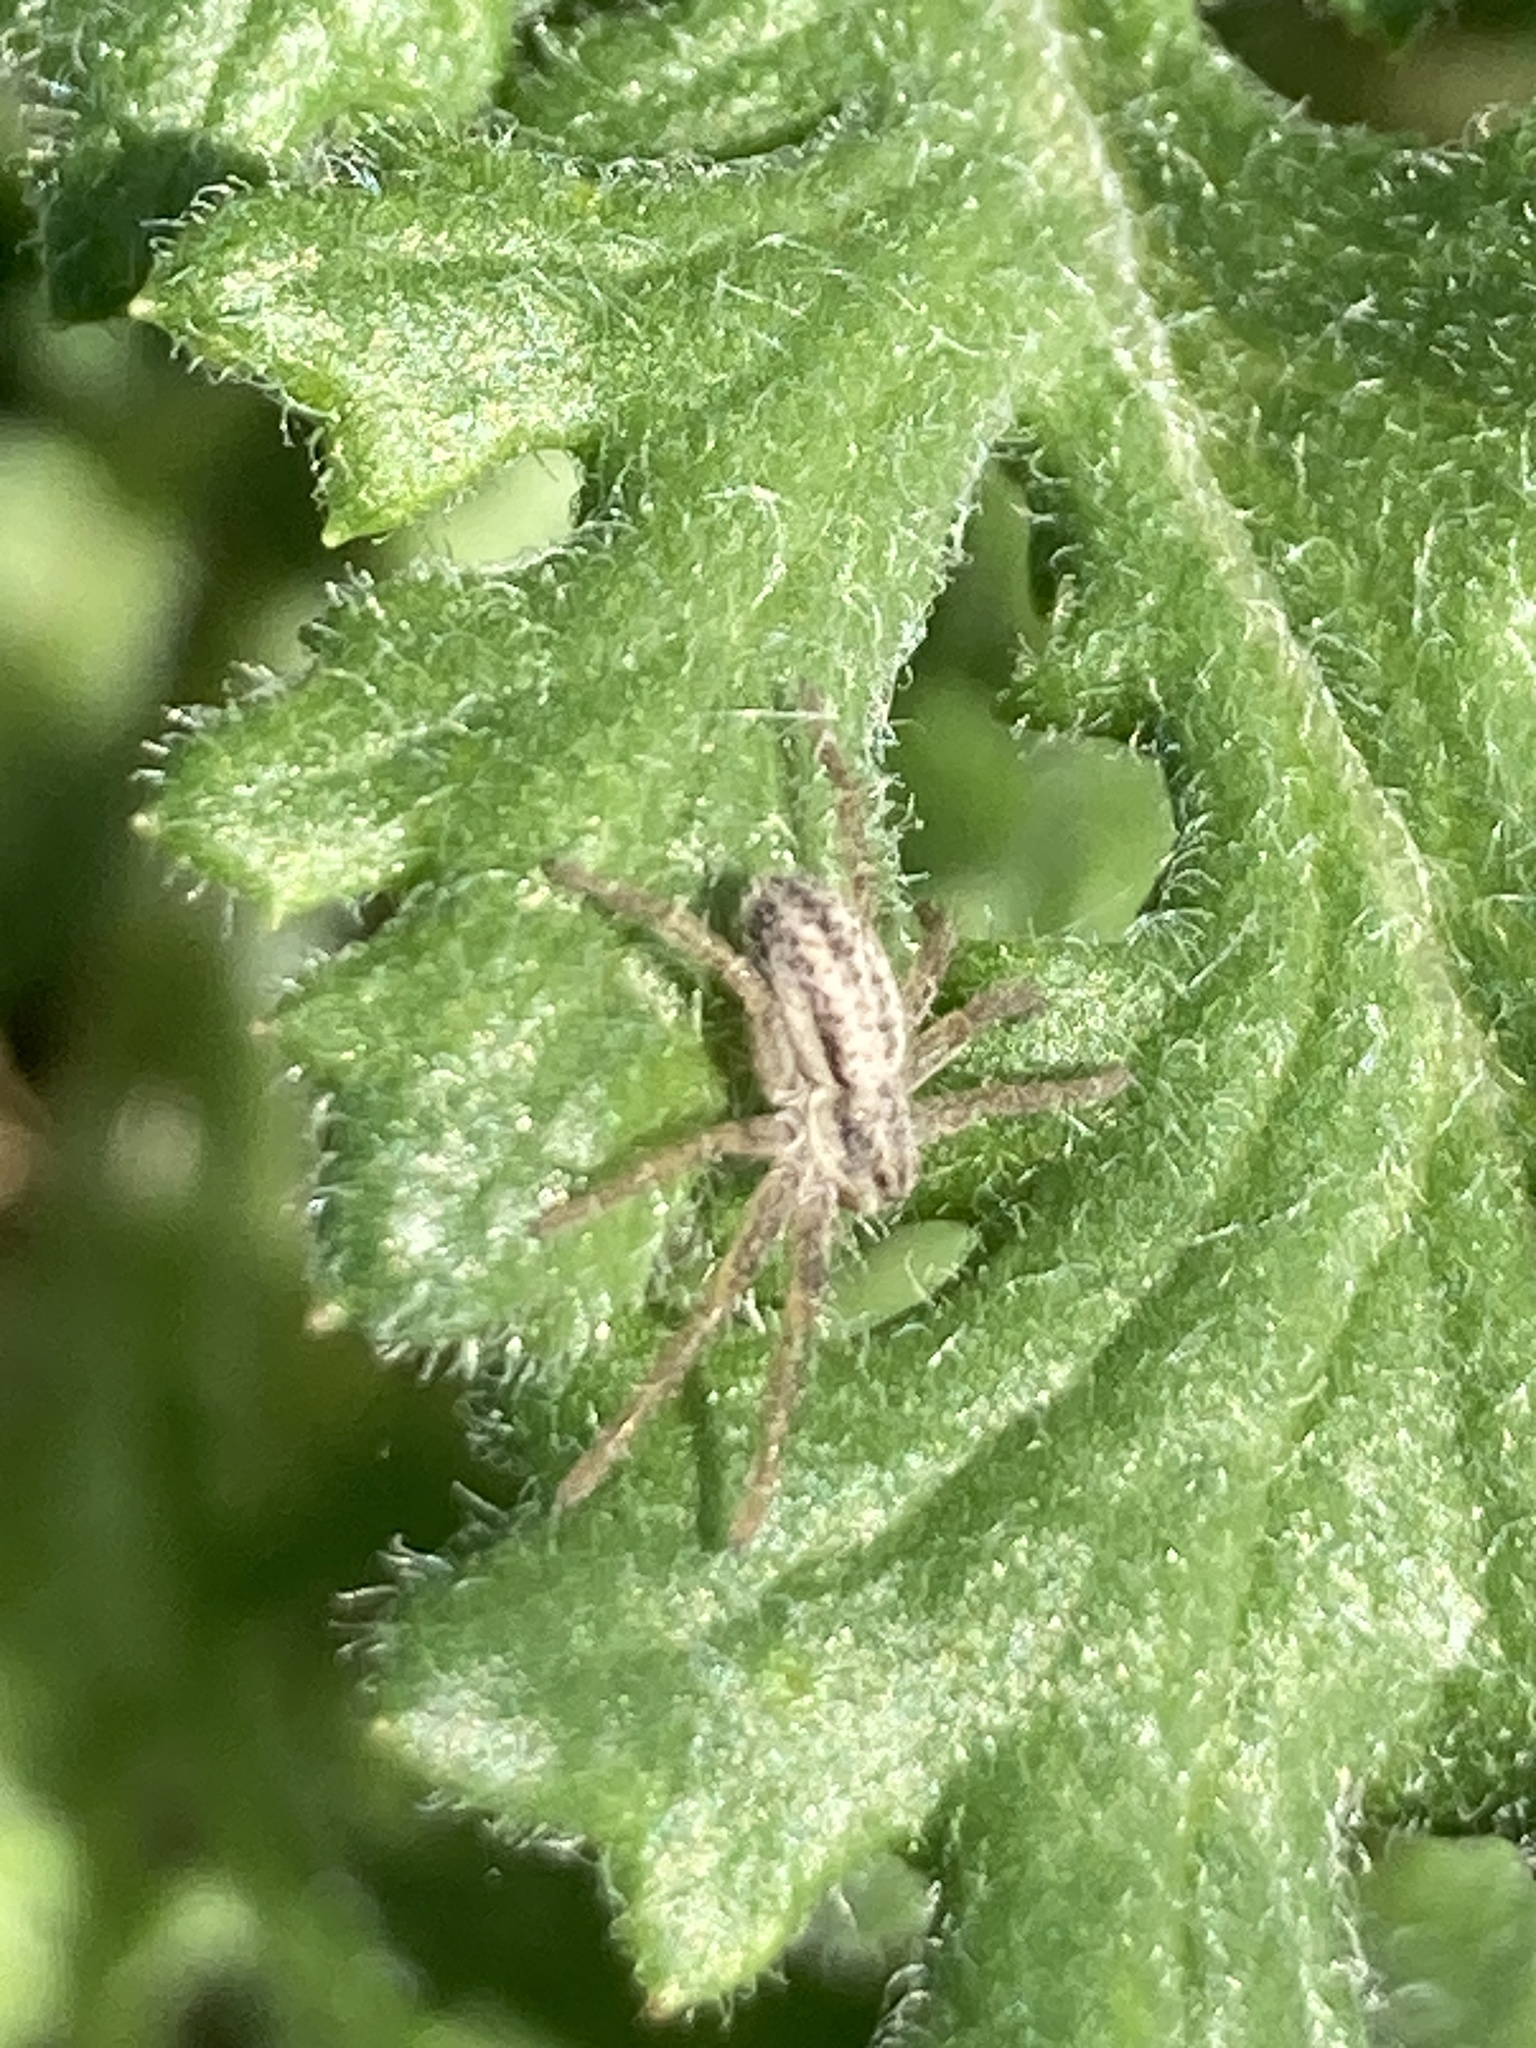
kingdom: Animalia
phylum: Arthropoda
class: Arachnida
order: Araneae
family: Philodromidae
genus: Thanatus
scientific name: Thanatus striatus
